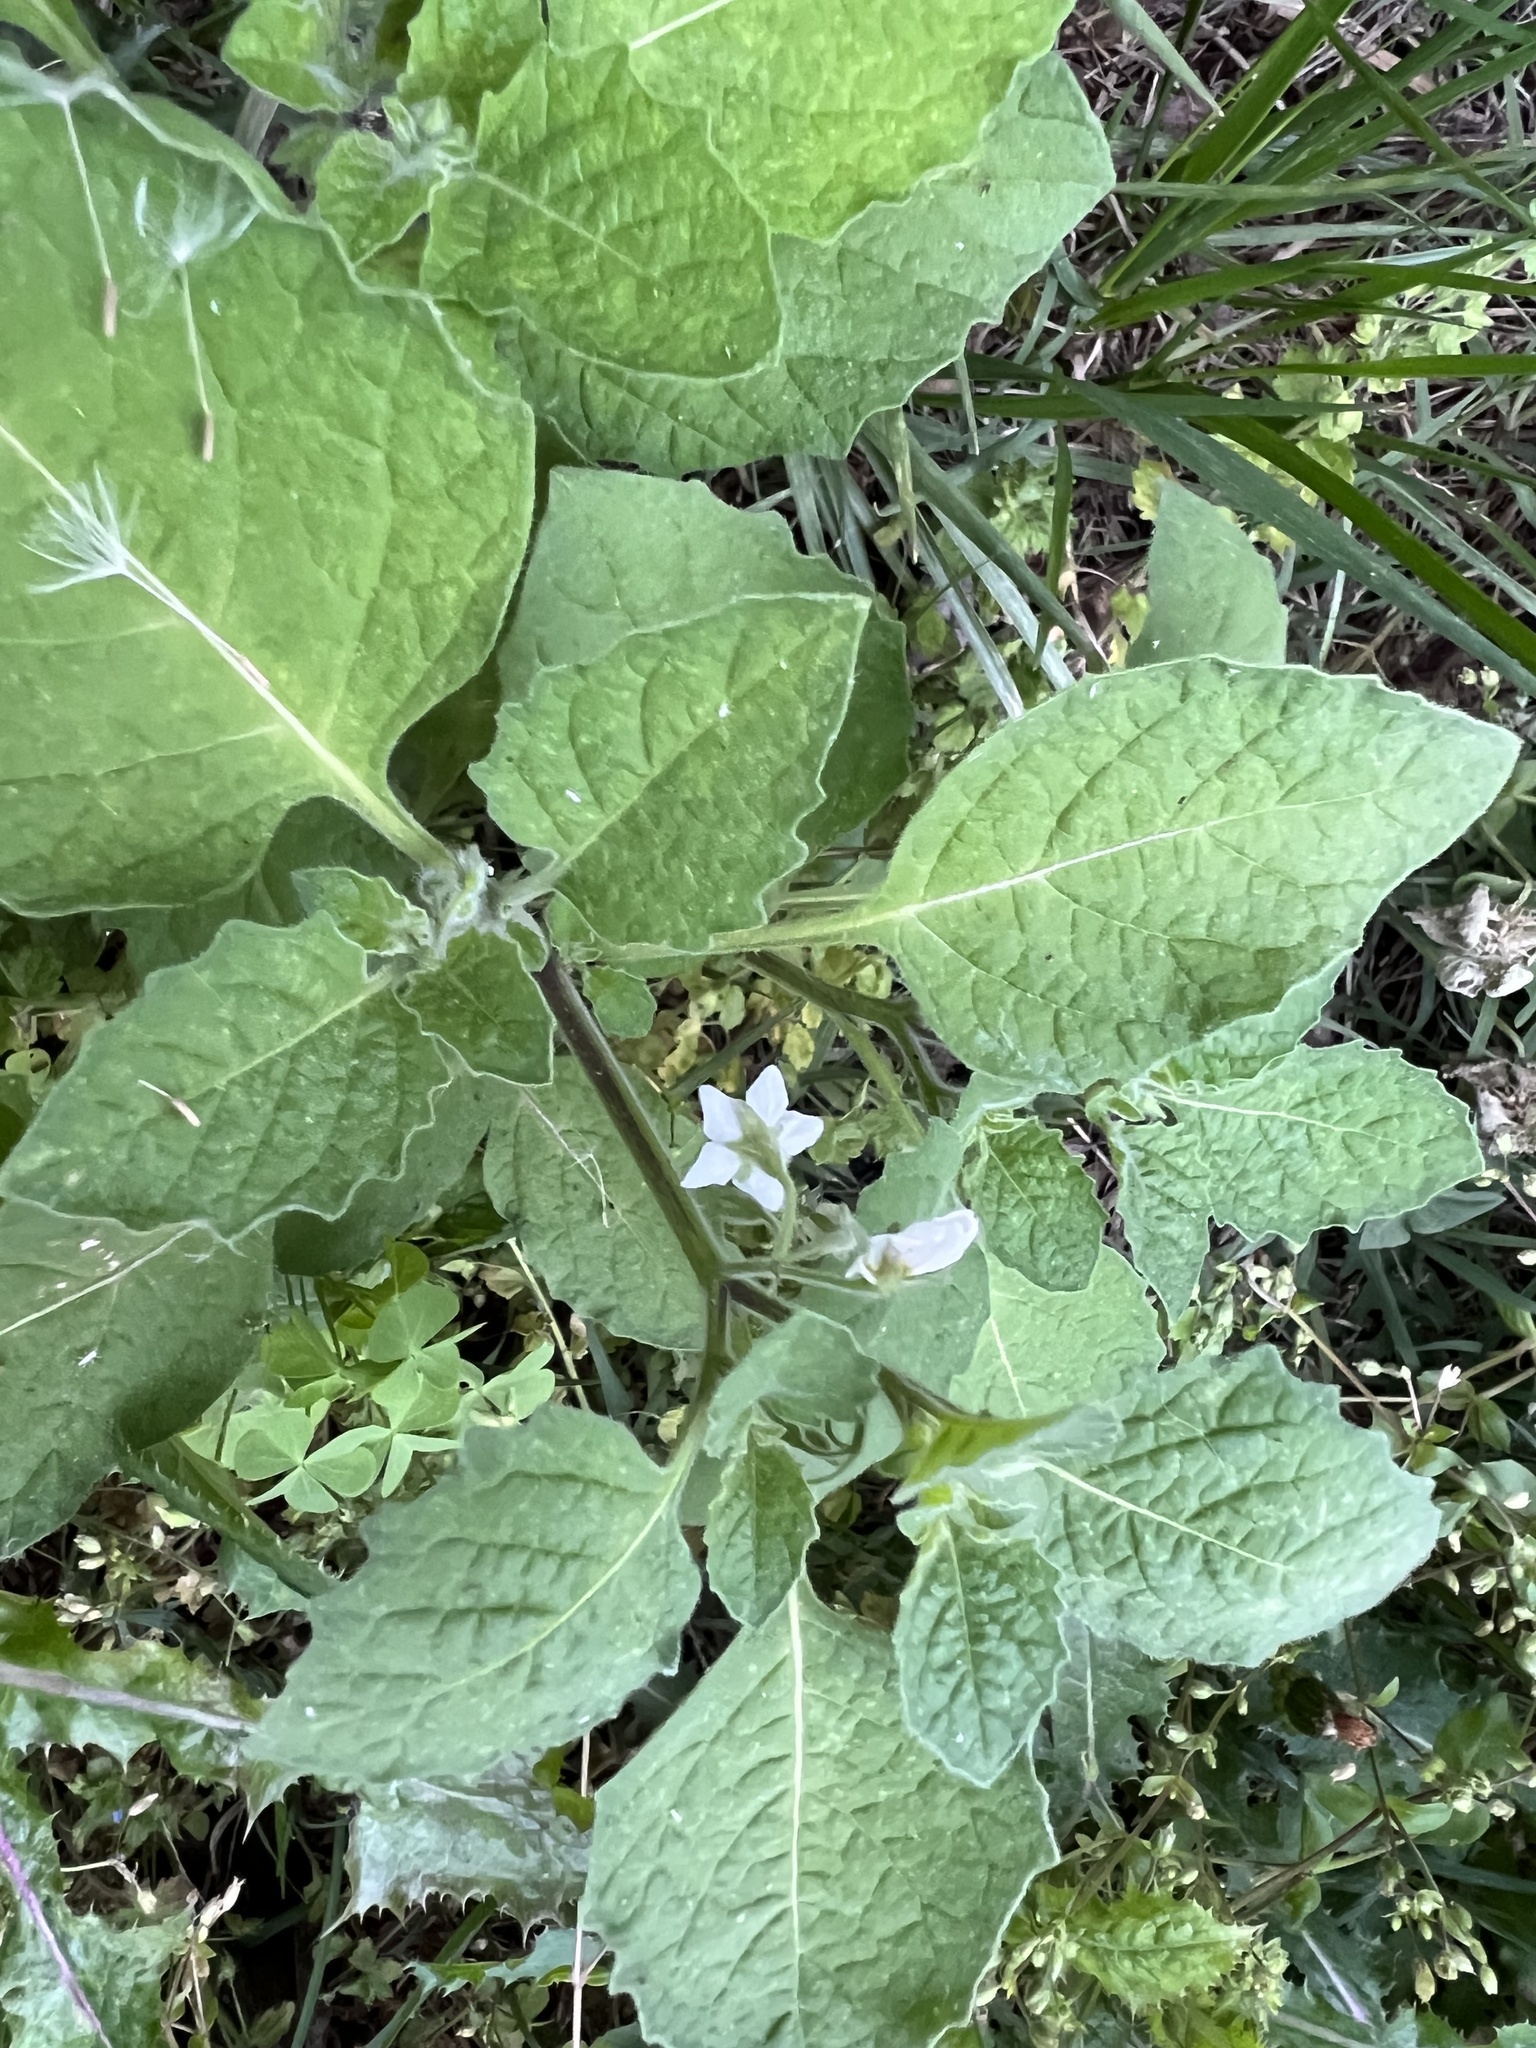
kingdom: Plantae
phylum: Tracheophyta
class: Magnoliopsida
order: Solanales
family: Solanaceae
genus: Solanum
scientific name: Solanum sarrachoides
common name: Leafy-fruited nightshade
